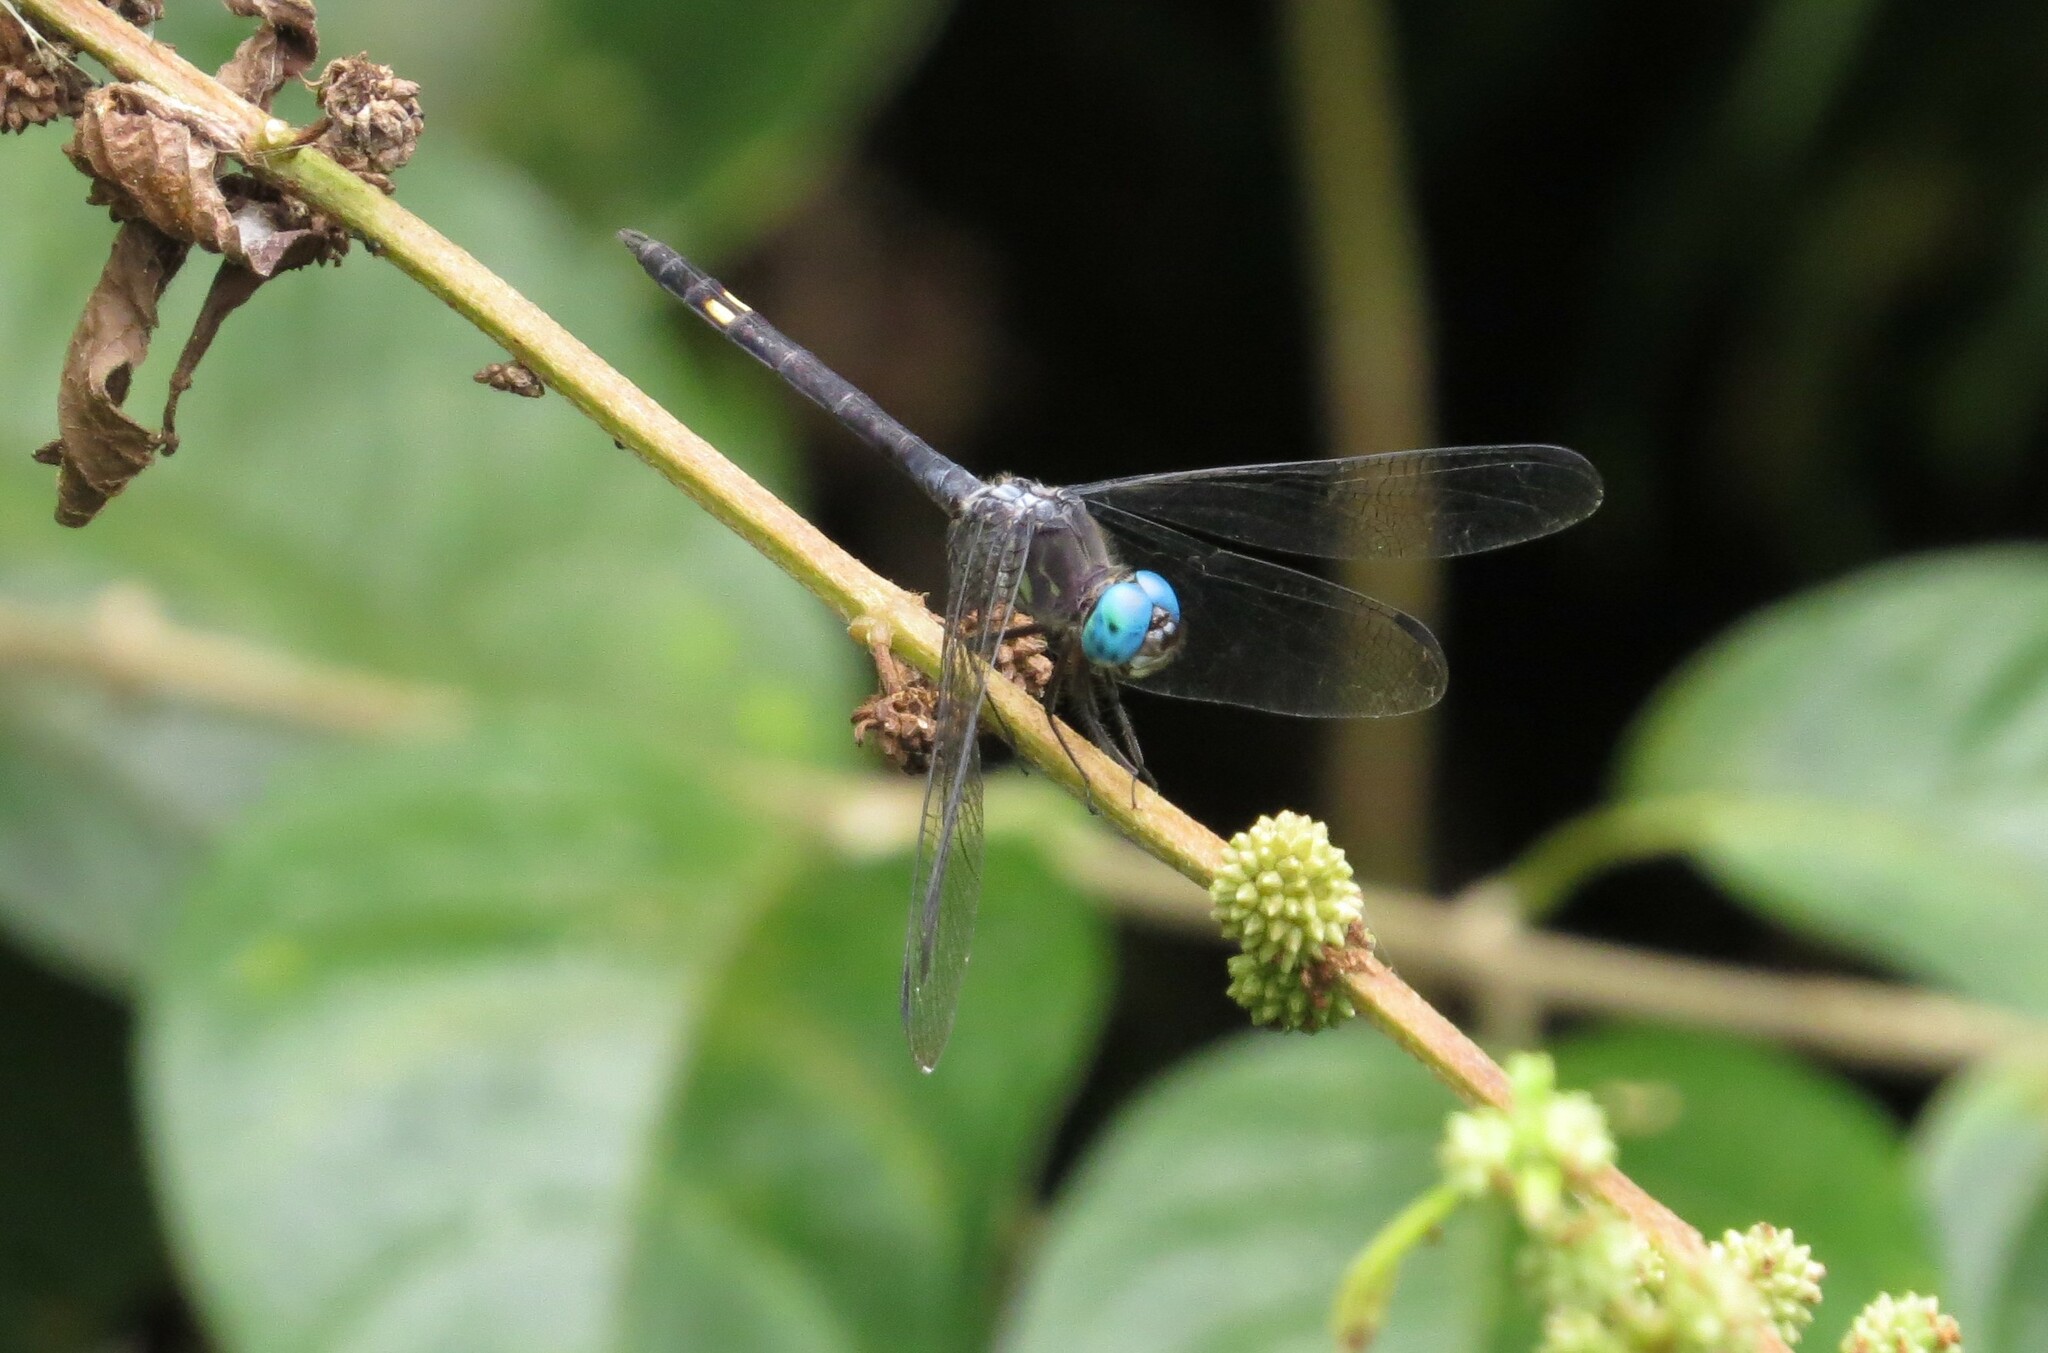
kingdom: Animalia
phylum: Arthropoda
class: Insecta
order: Odonata
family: Libellulidae
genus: Micrathyria
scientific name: Micrathyria atra
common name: Black dasher
